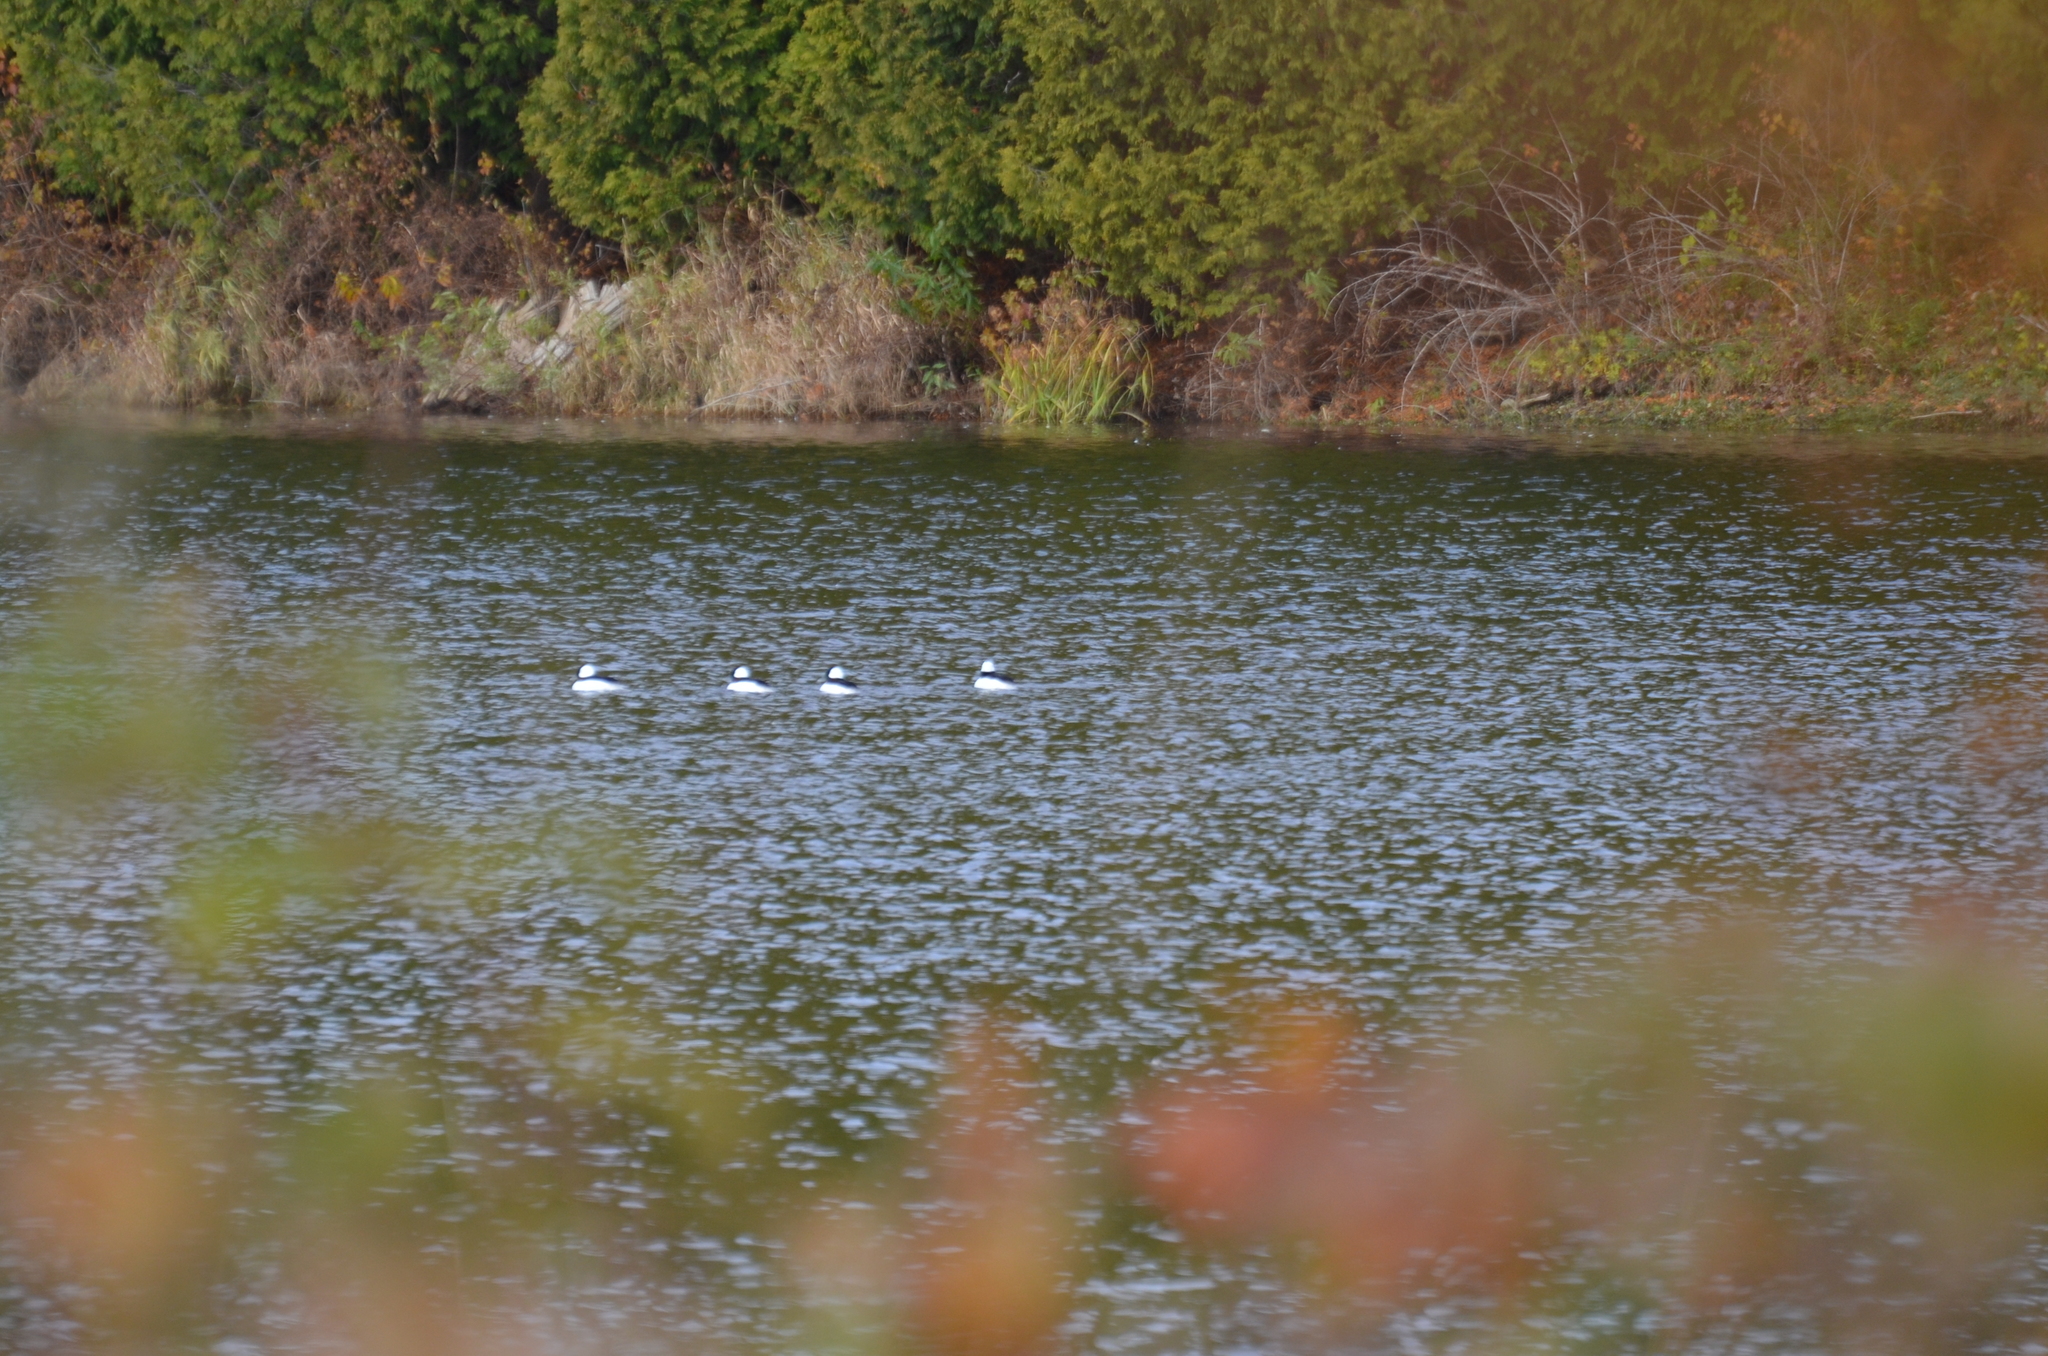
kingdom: Animalia
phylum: Chordata
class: Aves
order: Anseriformes
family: Anatidae
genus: Bucephala
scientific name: Bucephala albeola
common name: Bufflehead
